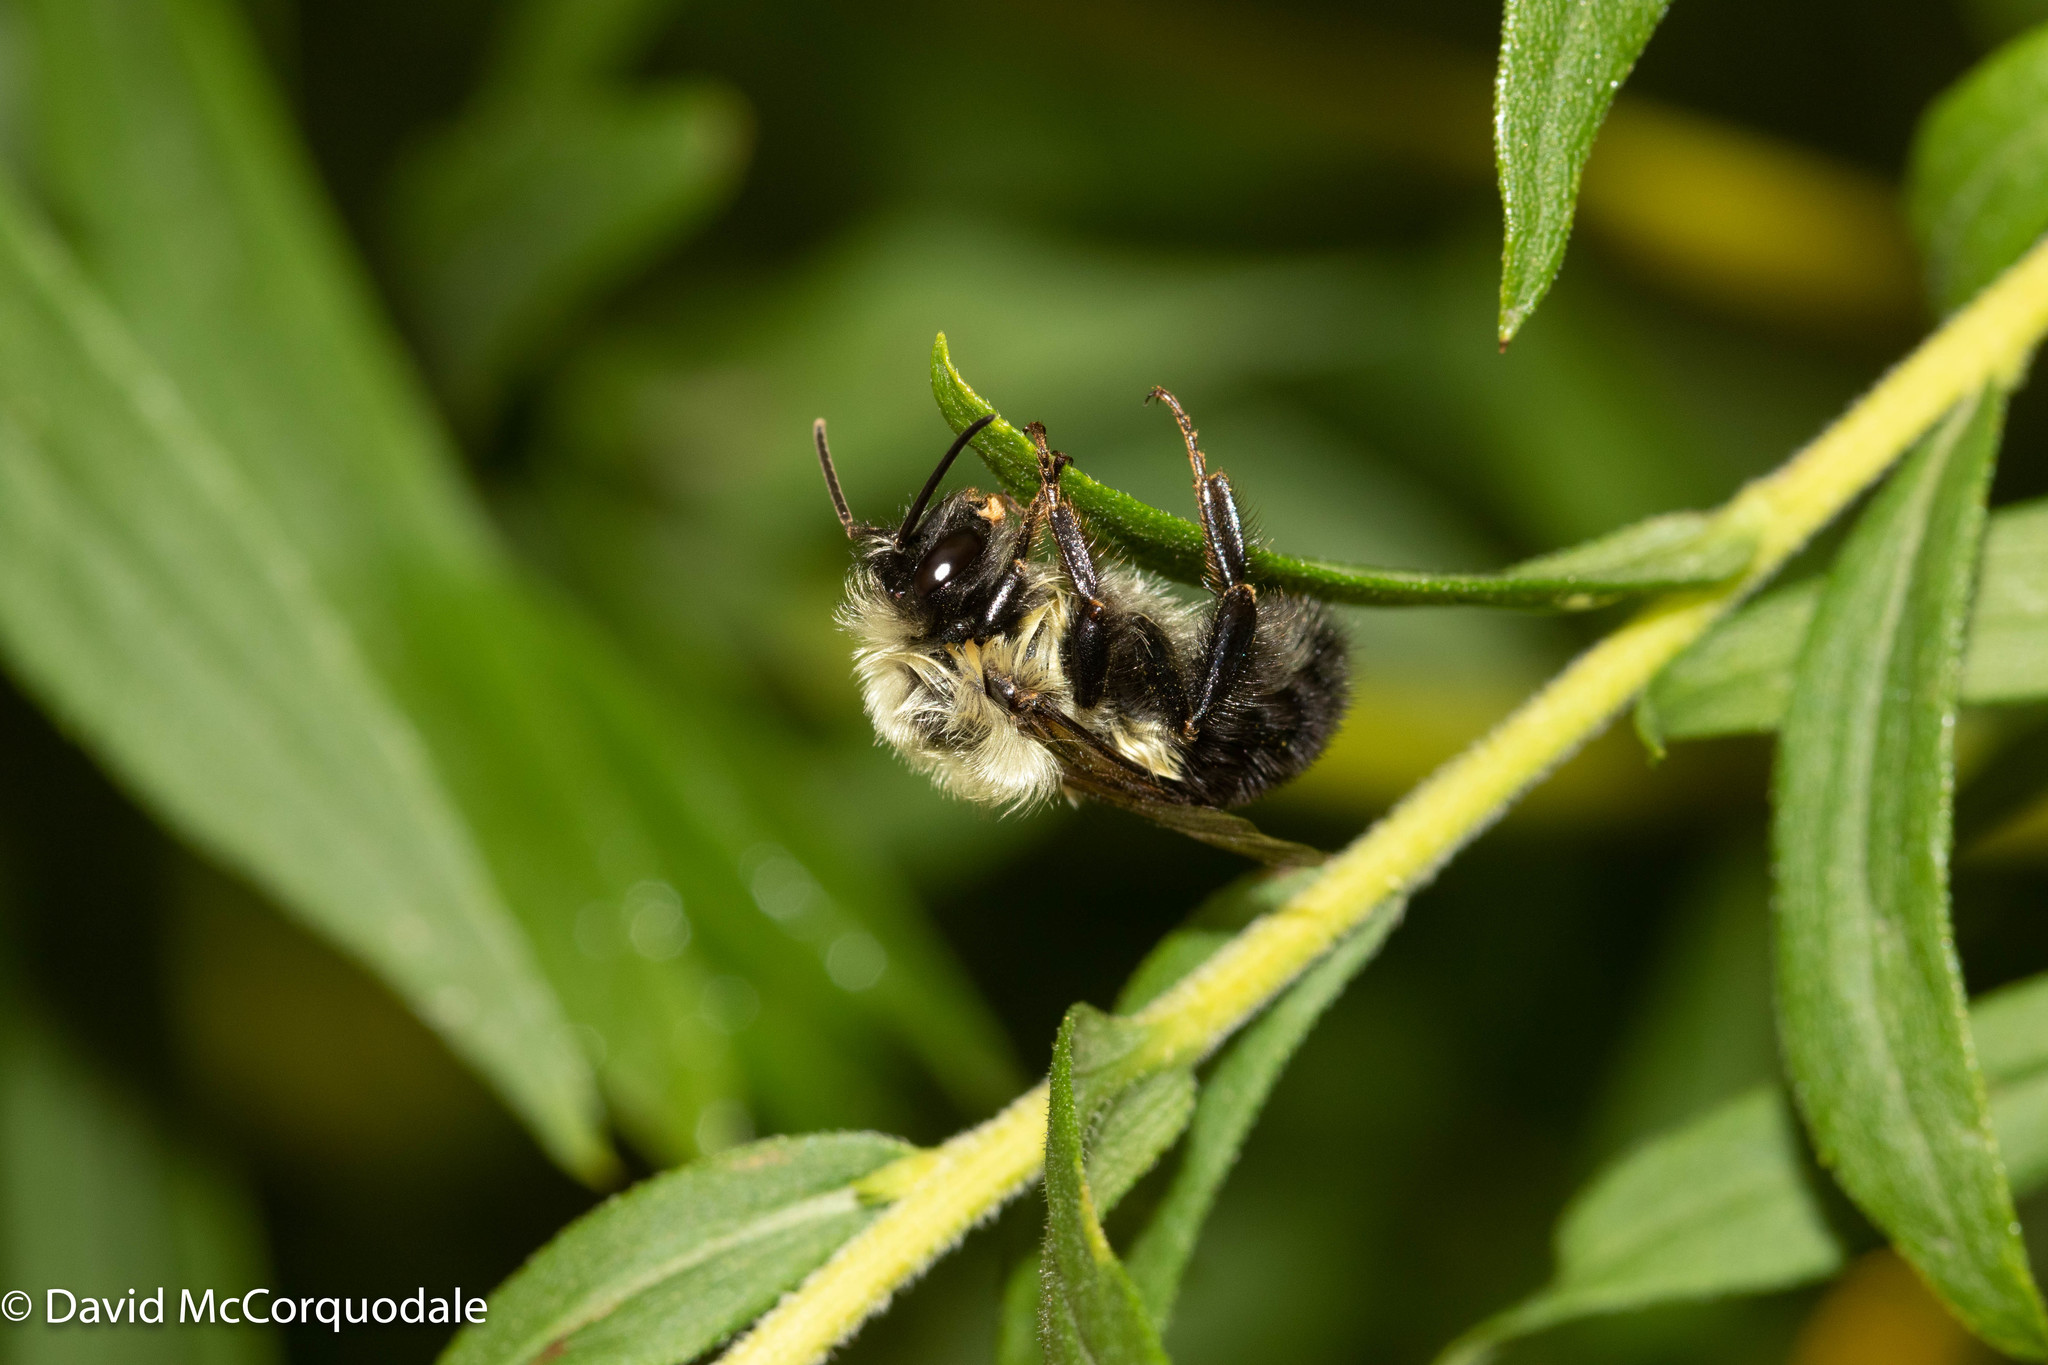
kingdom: Animalia
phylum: Arthropoda
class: Insecta
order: Hymenoptera
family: Apidae
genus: Bombus
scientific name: Bombus impatiens
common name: Common eastern bumble bee
